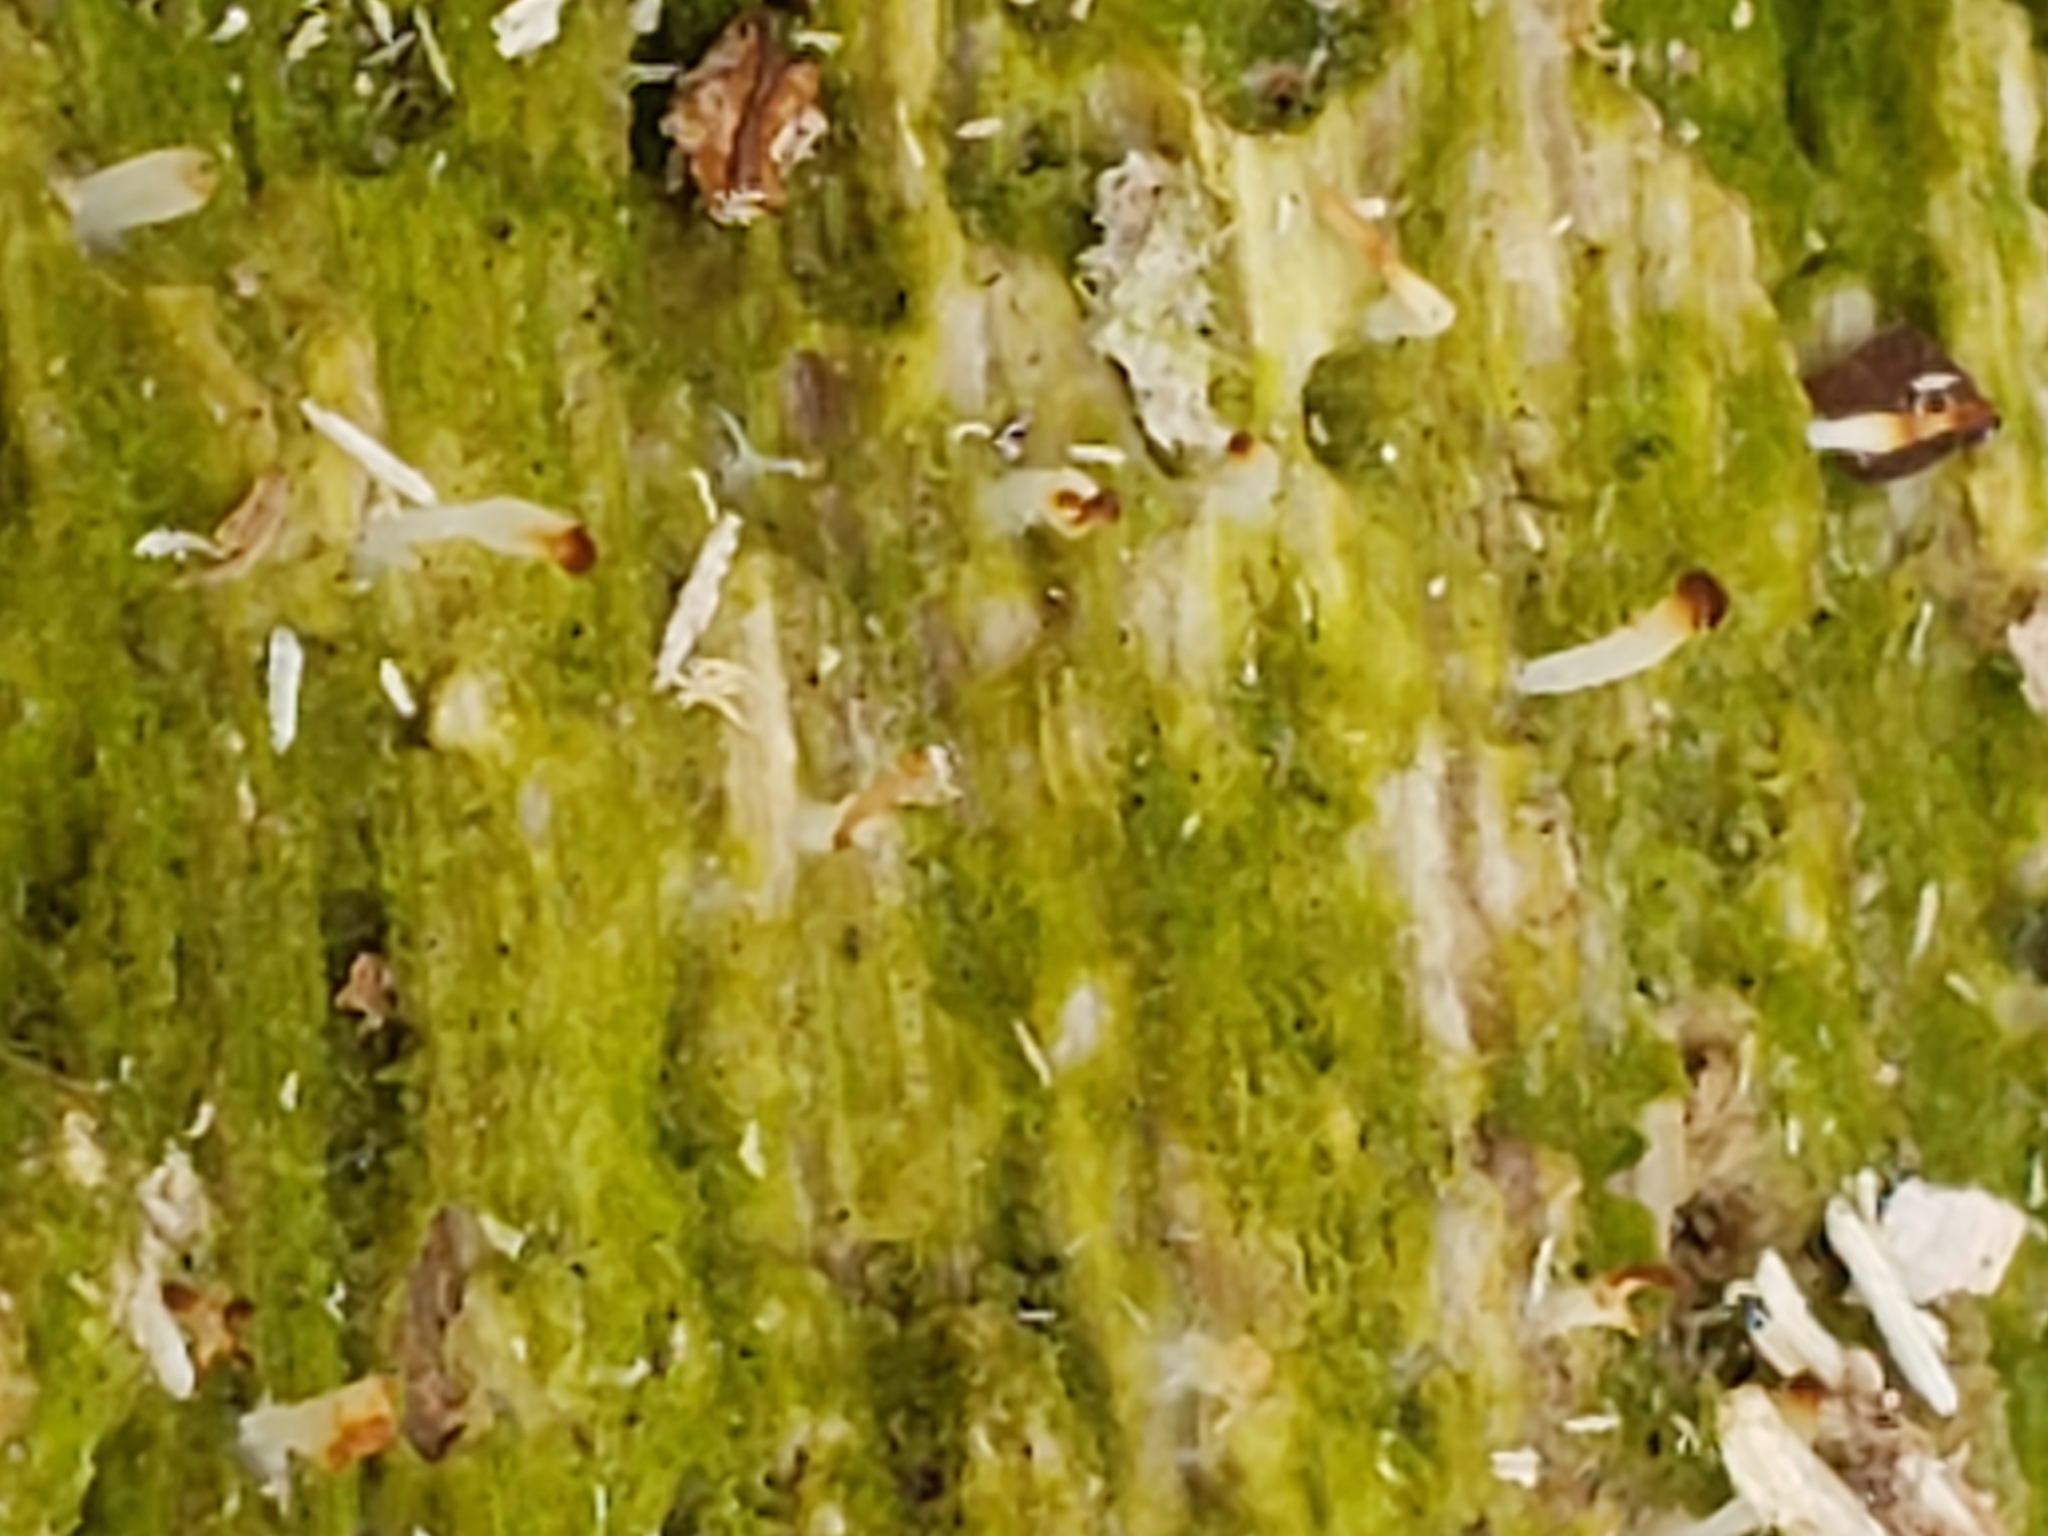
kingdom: Fungi
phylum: Basidiomycota
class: Agaricomycetes
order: Cantharellales
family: Hydnaceae
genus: Multiclavula
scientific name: Multiclavula mucida
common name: White green-algae coral
